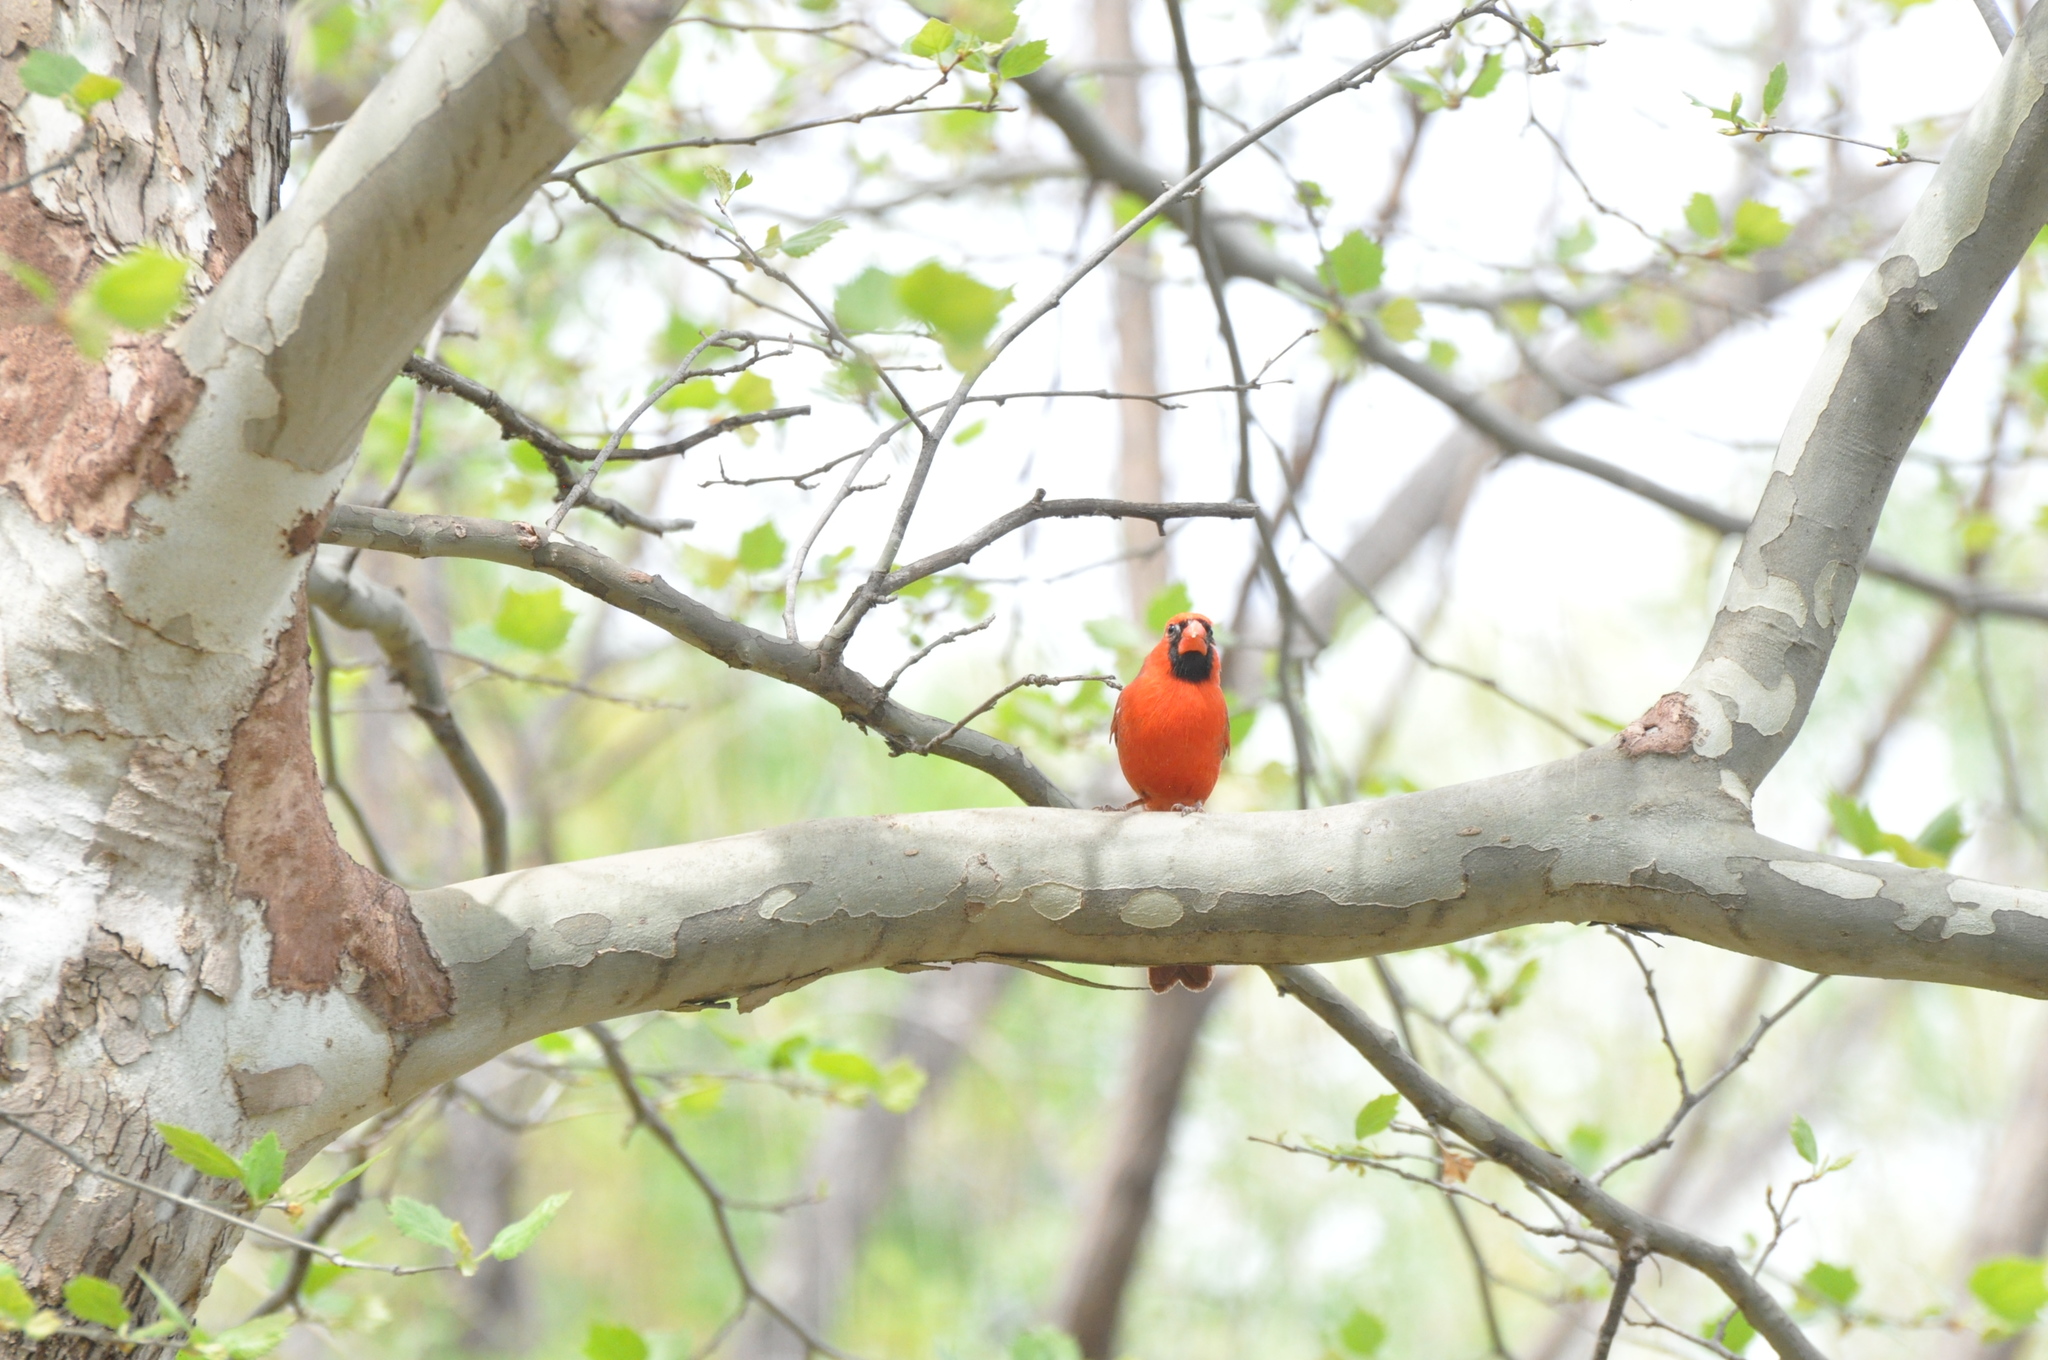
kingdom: Animalia
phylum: Chordata
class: Aves
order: Passeriformes
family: Cardinalidae
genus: Cardinalis
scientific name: Cardinalis cardinalis
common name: Northern cardinal
